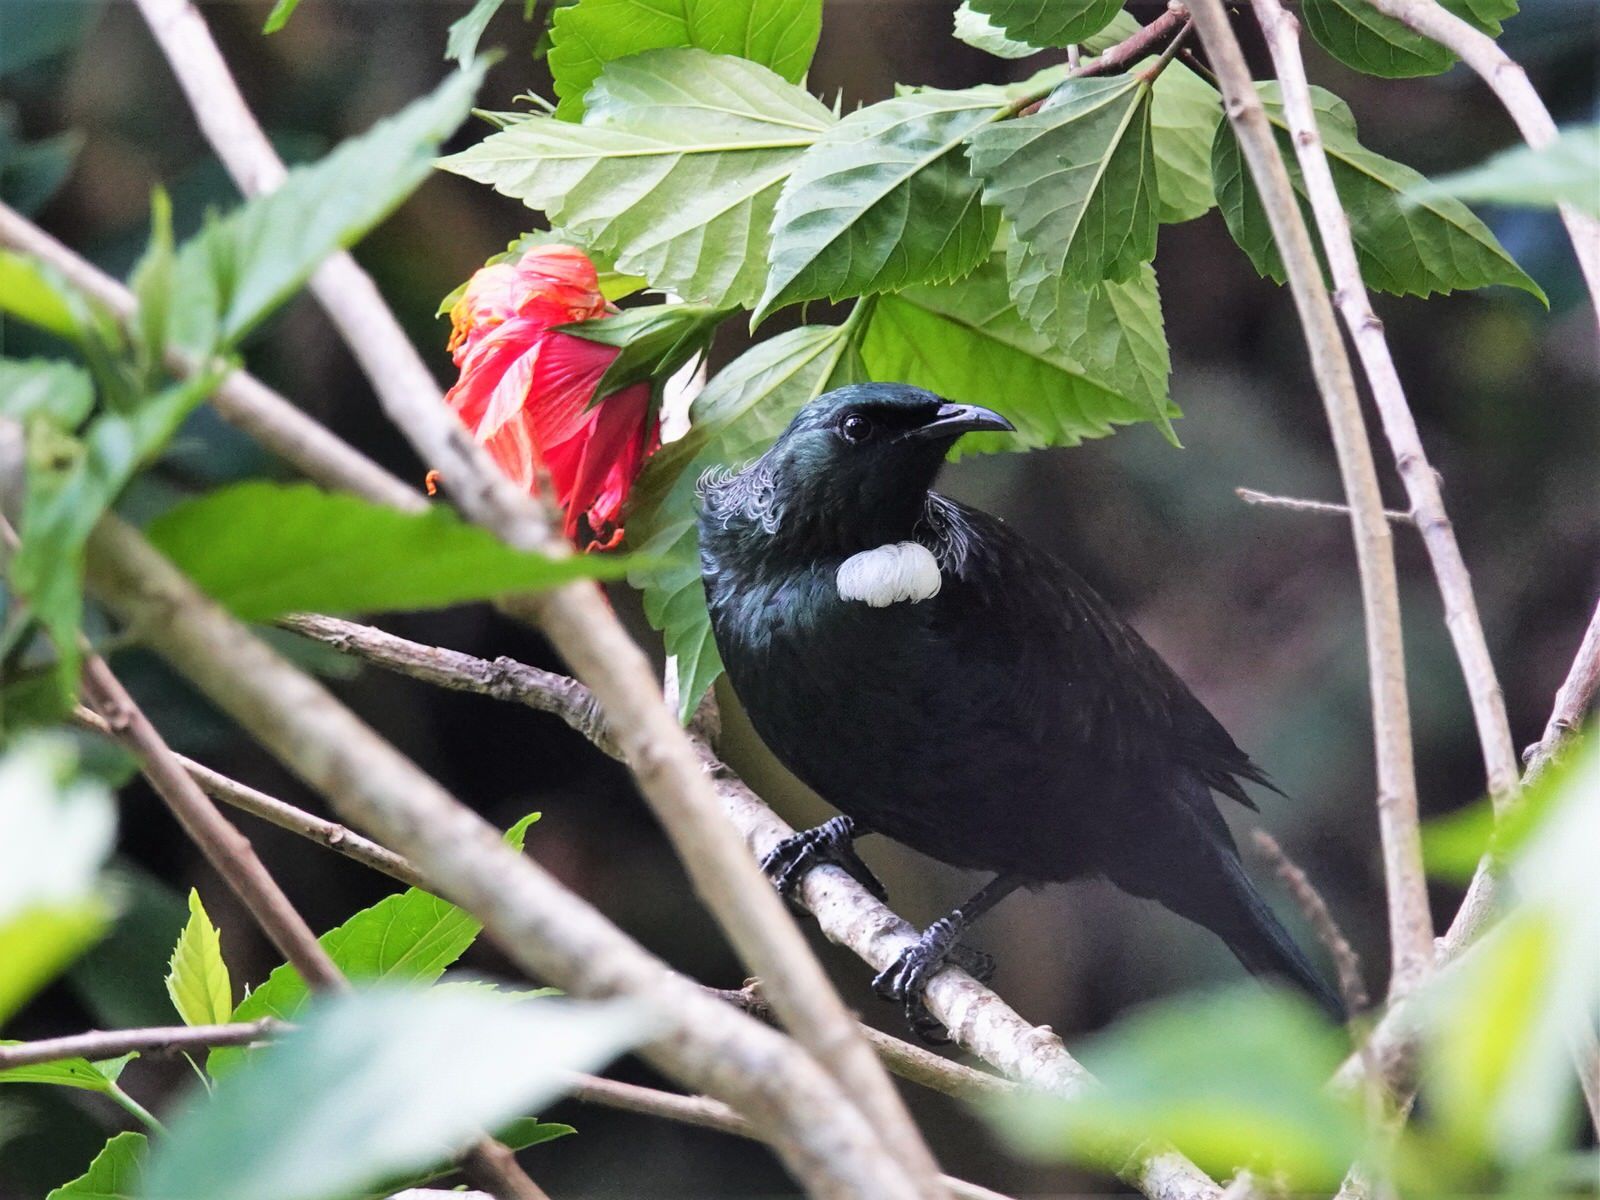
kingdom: Animalia
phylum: Chordata
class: Aves
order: Passeriformes
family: Meliphagidae
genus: Prosthemadera
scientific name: Prosthemadera novaeseelandiae
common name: Tui
